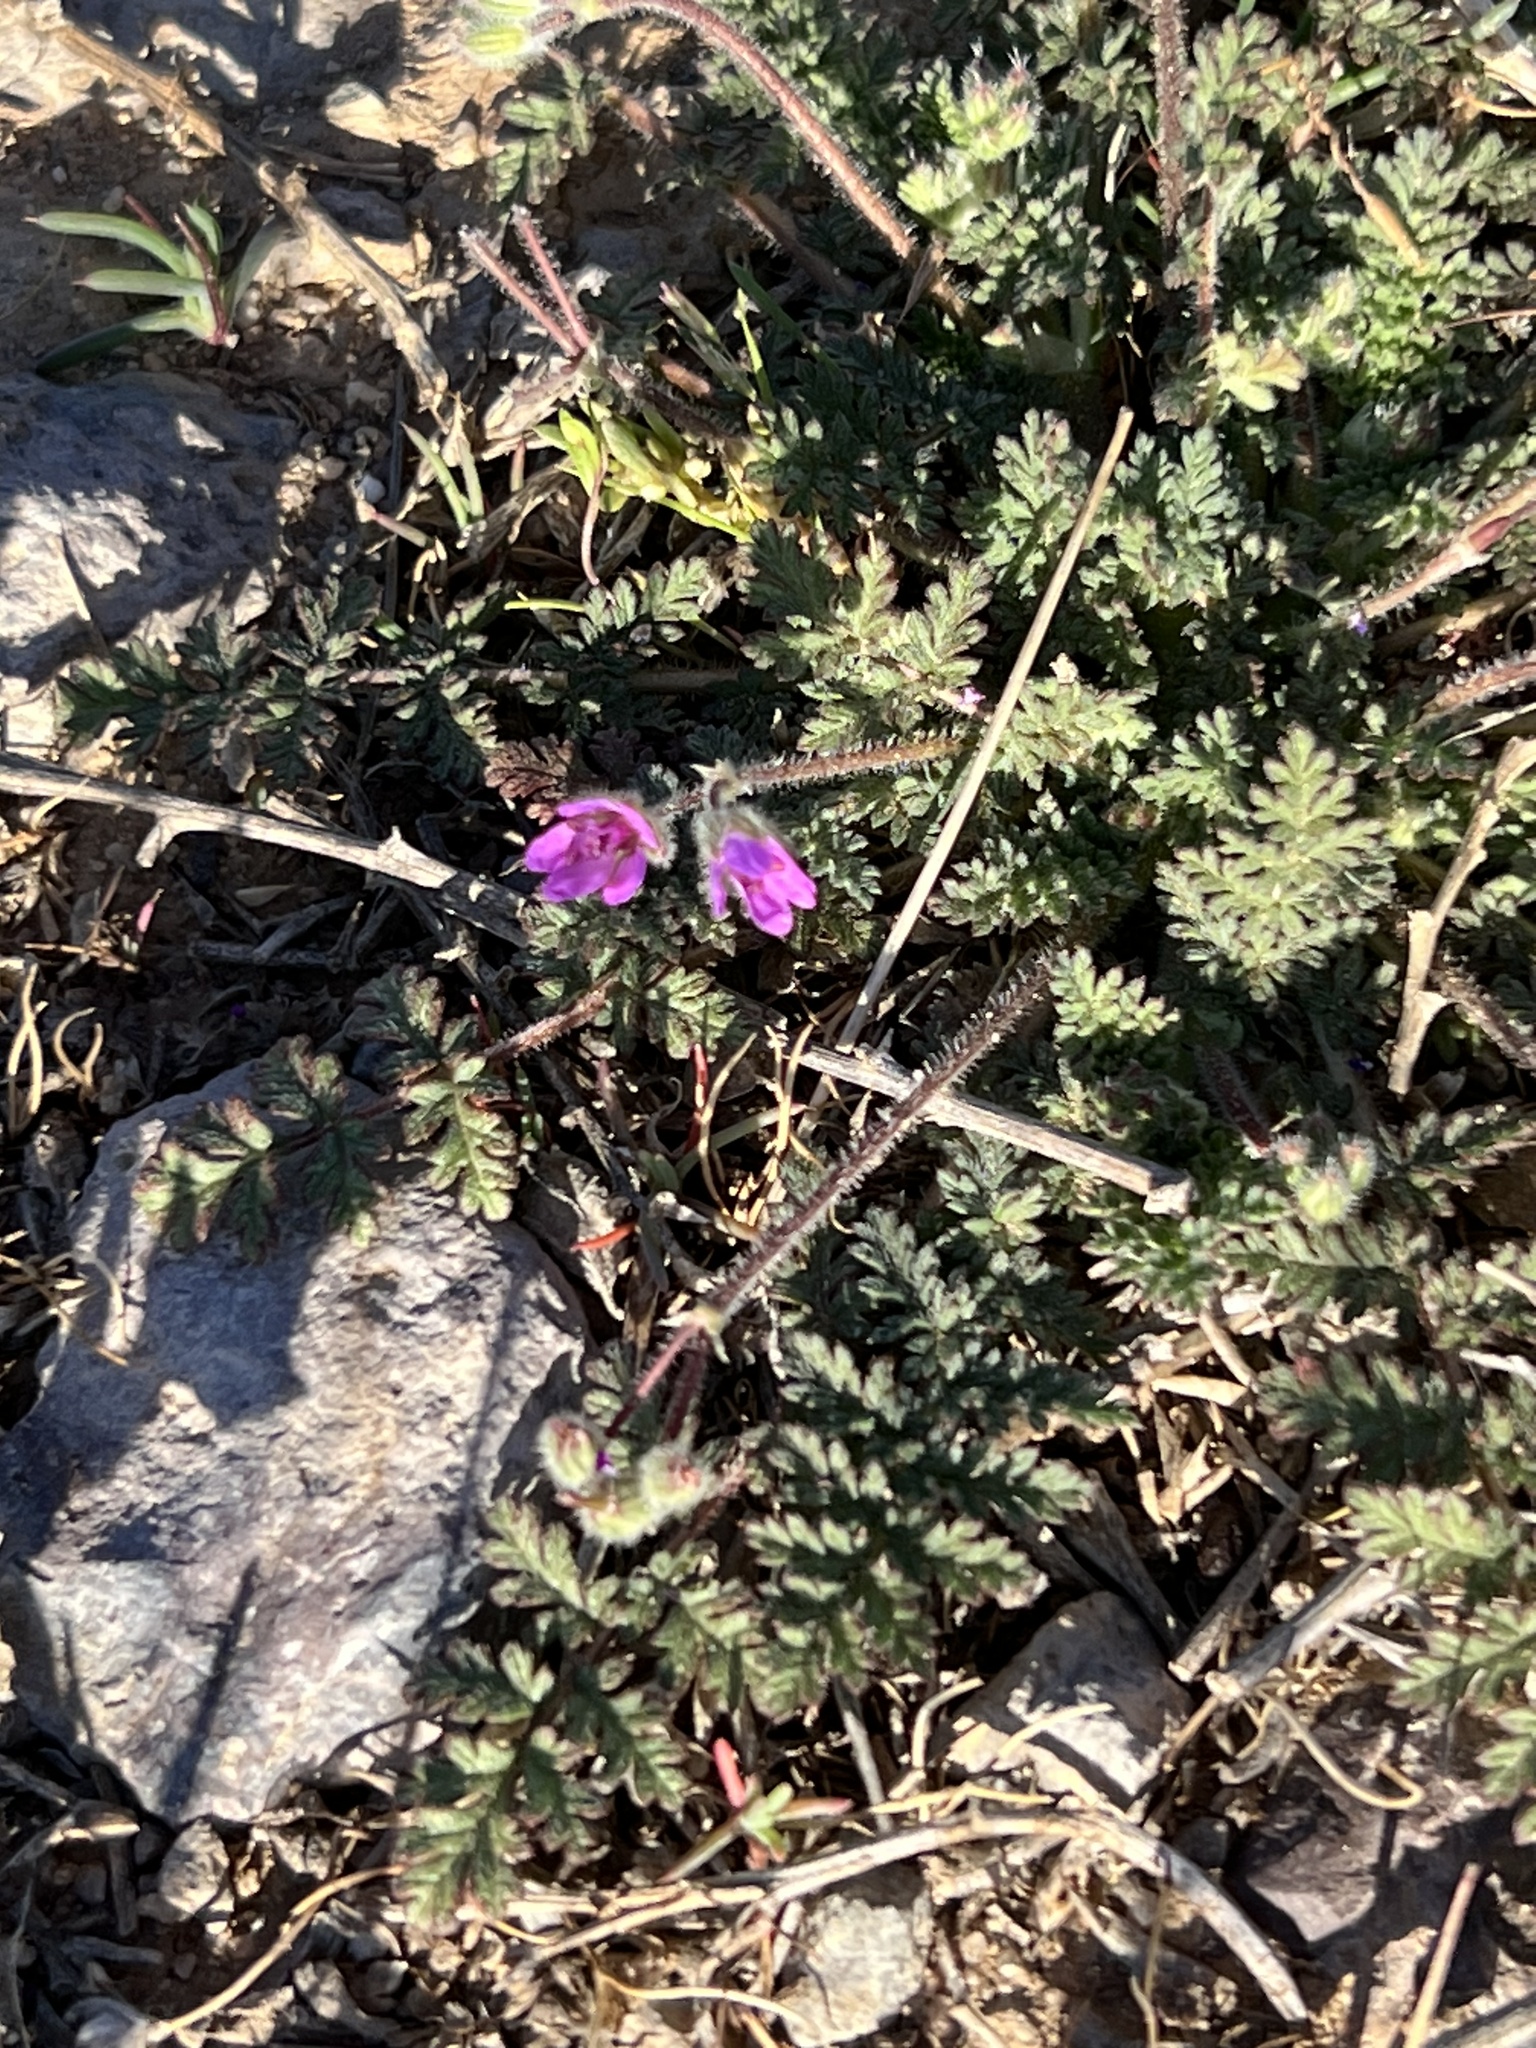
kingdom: Plantae
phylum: Tracheophyta
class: Magnoliopsida
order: Geraniales
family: Geraniaceae
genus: Erodium
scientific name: Erodium cicutarium
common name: Common stork's-bill
